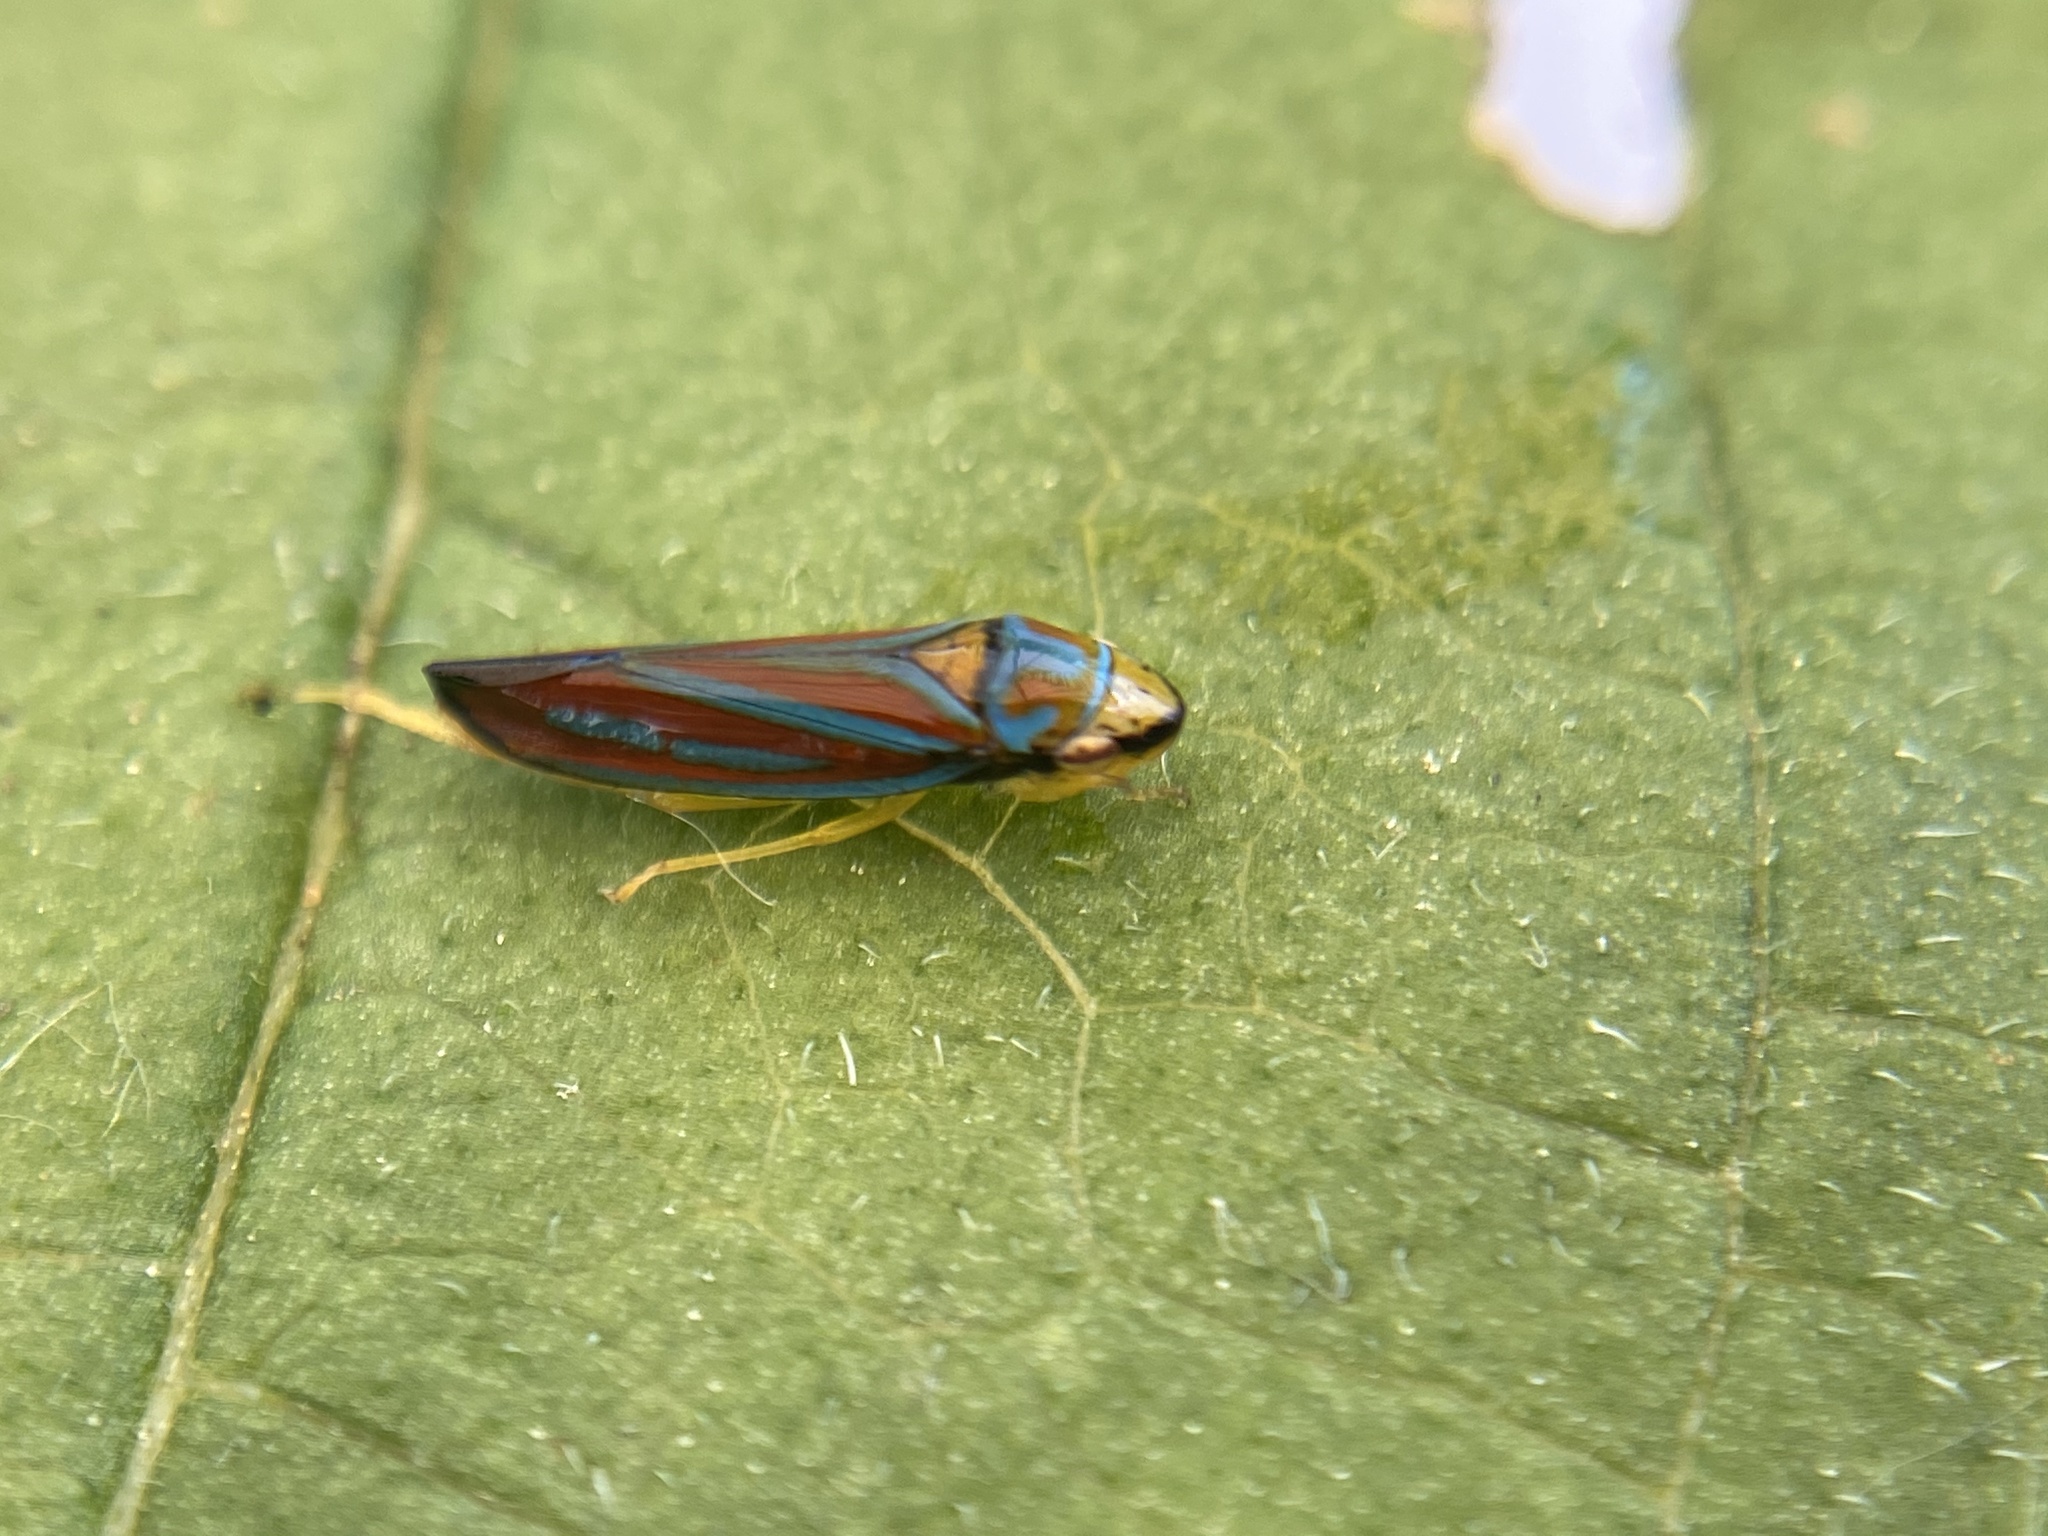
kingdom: Animalia
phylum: Arthropoda
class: Insecta
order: Hemiptera
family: Cicadellidae
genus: Graphocephala
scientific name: Graphocephala coccinea
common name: Candy-striped leafhopper
